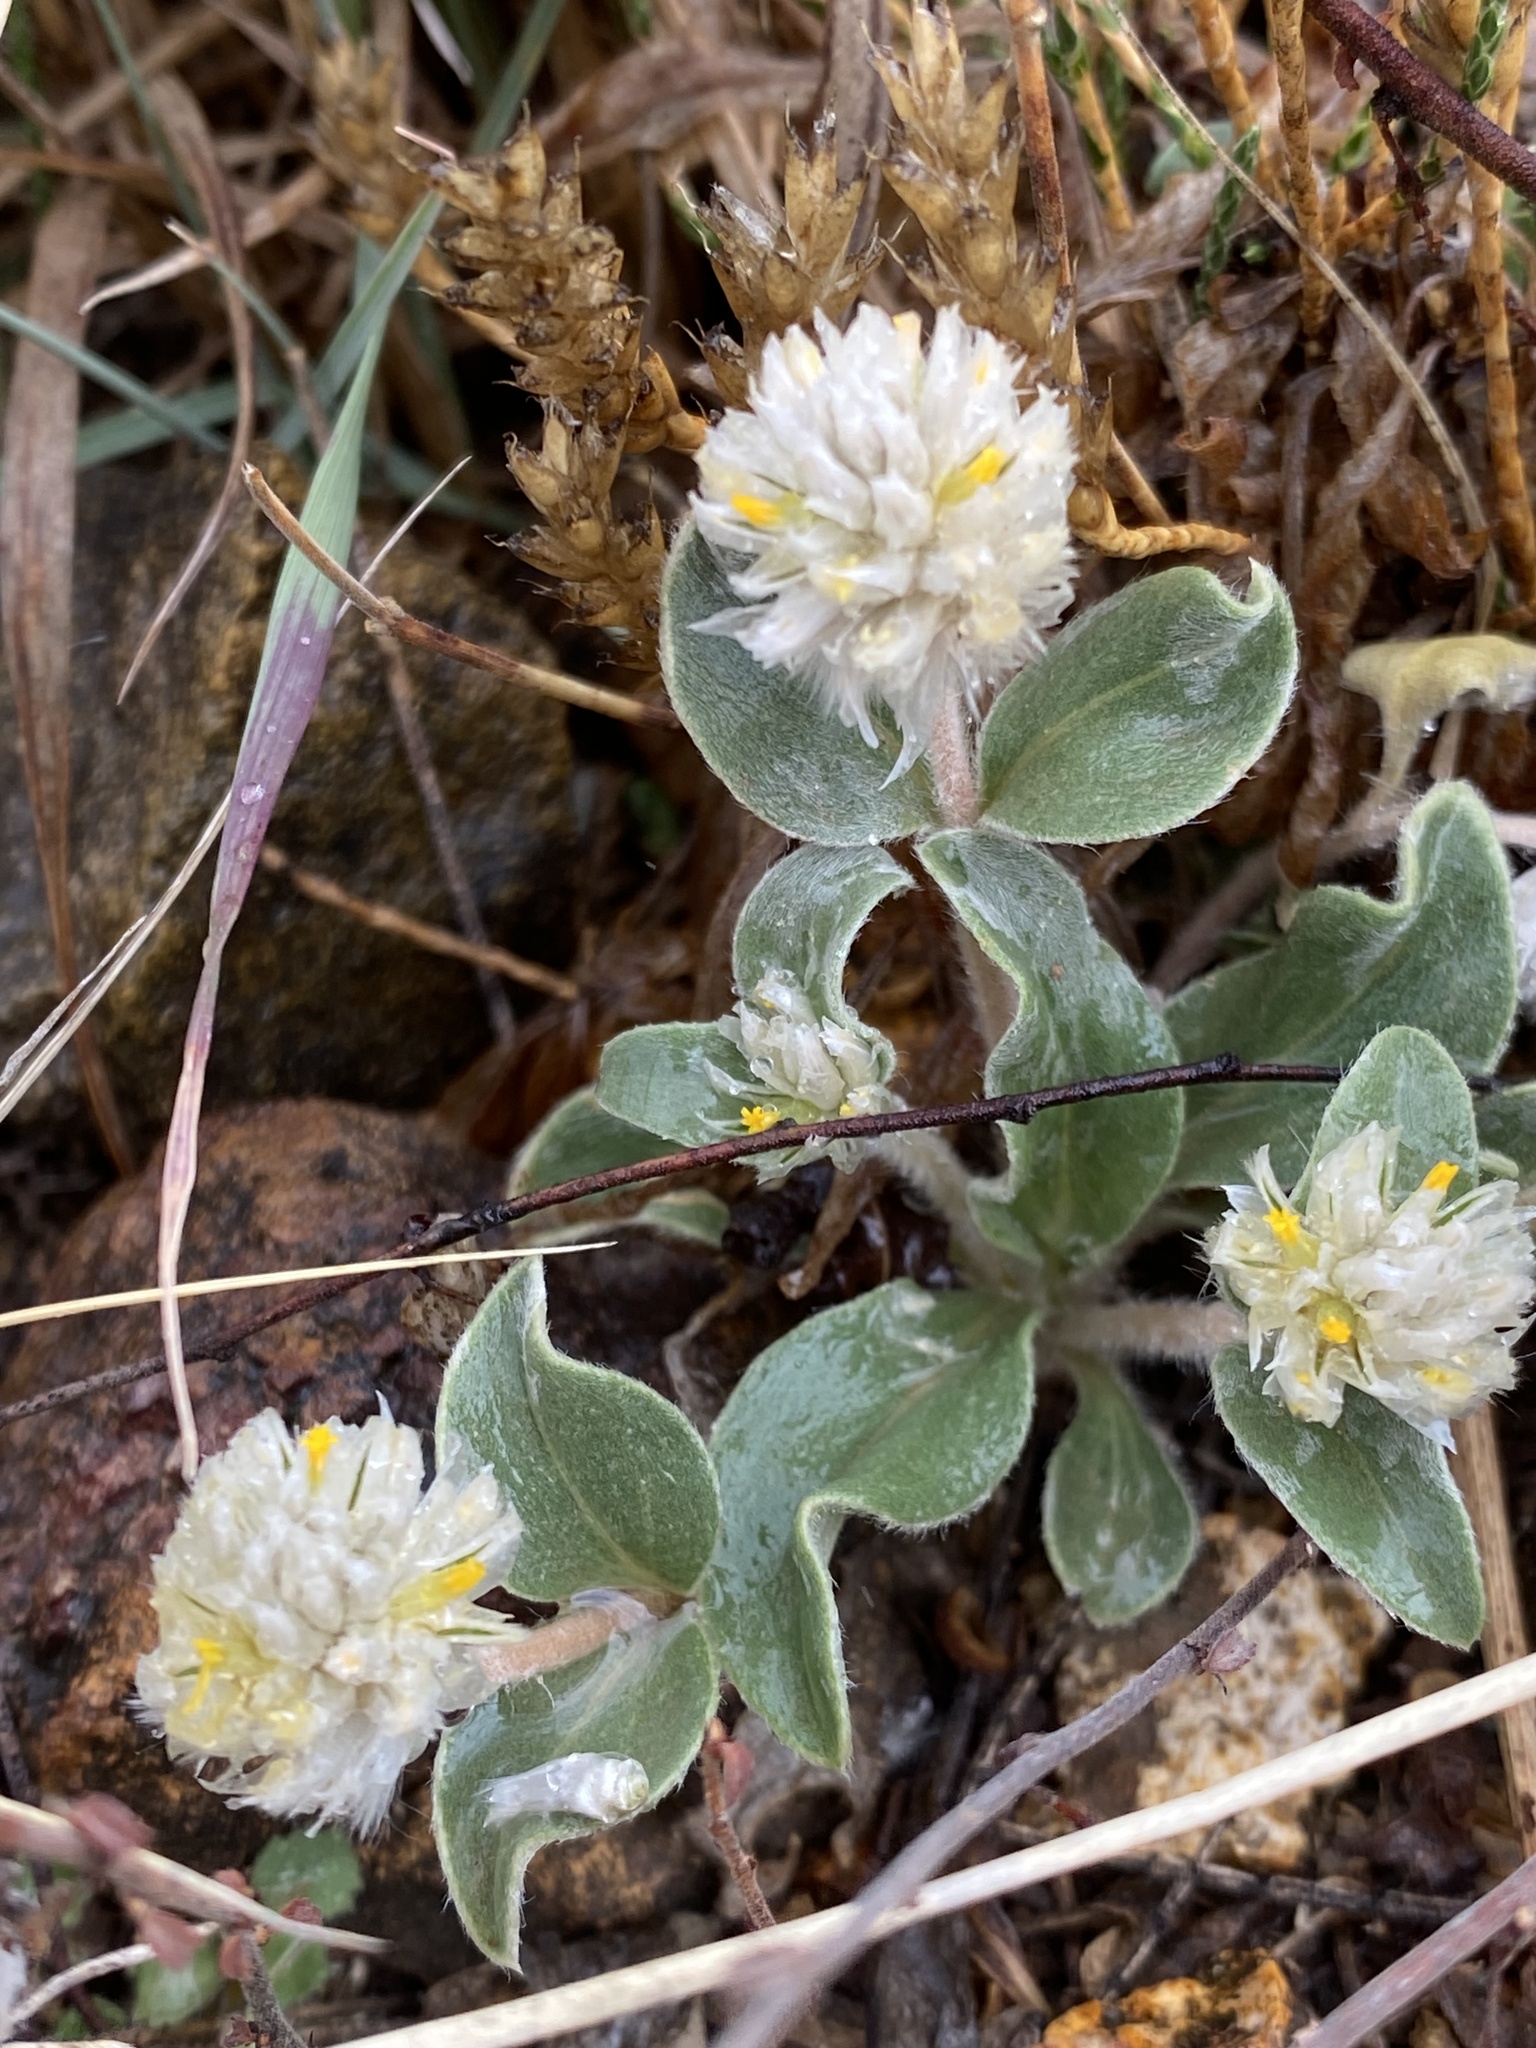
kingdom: Plantae
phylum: Tracheophyta
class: Magnoliopsida
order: Caryophyllales
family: Amaranthaceae
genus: Gomphrena
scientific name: Gomphrena caespitosa
